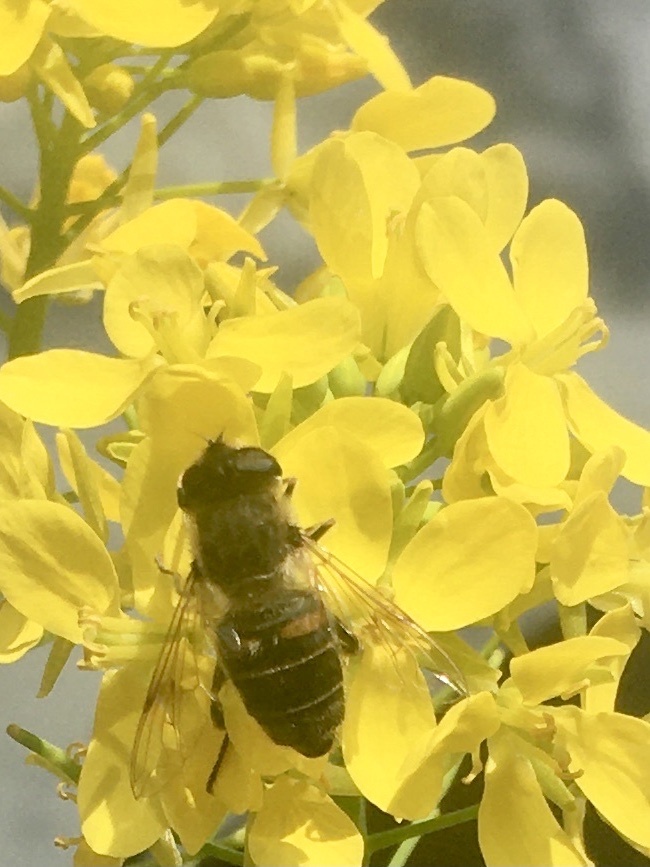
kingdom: Animalia
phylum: Arthropoda
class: Insecta
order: Diptera
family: Syrphidae
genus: Eristalis
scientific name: Eristalis tenax
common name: Drone fly
